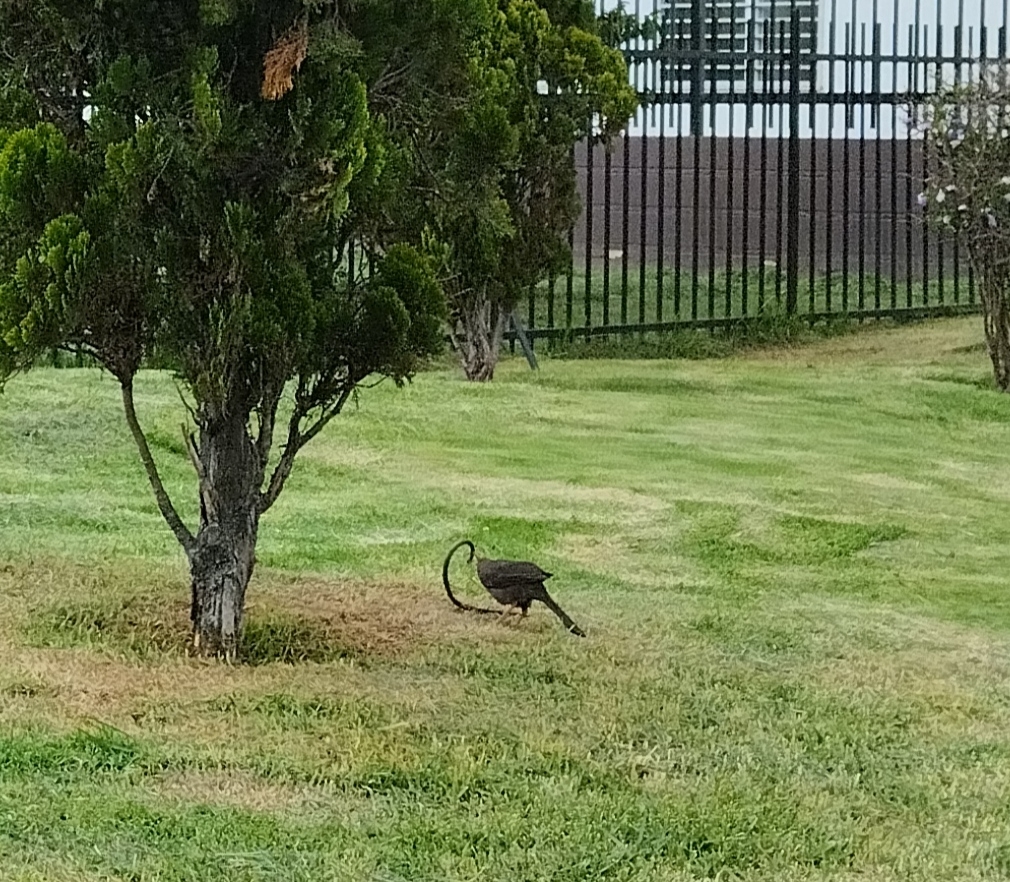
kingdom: Animalia
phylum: Chordata
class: Aves
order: Passeriformes
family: Turdidae
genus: Turdus
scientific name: Turdus fuscater
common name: Great thrush
